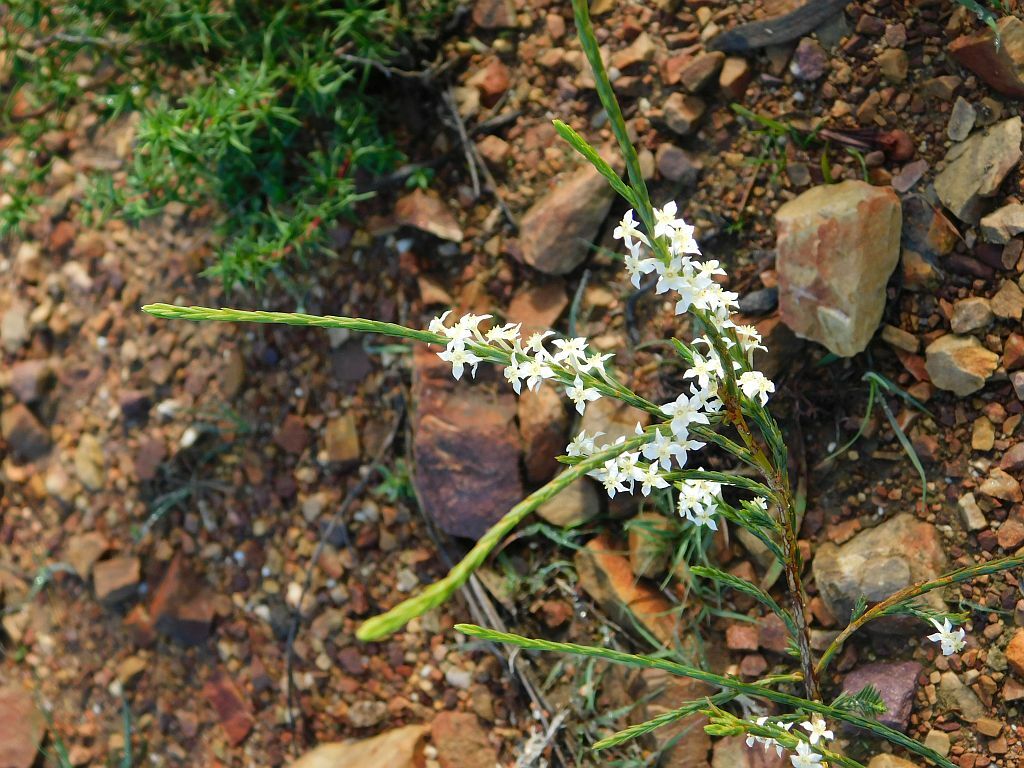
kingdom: Plantae
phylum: Tracheophyta
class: Magnoliopsida
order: Malvales
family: Thymelaeaceae
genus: Struthiola
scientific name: Struthiola dodecandra
